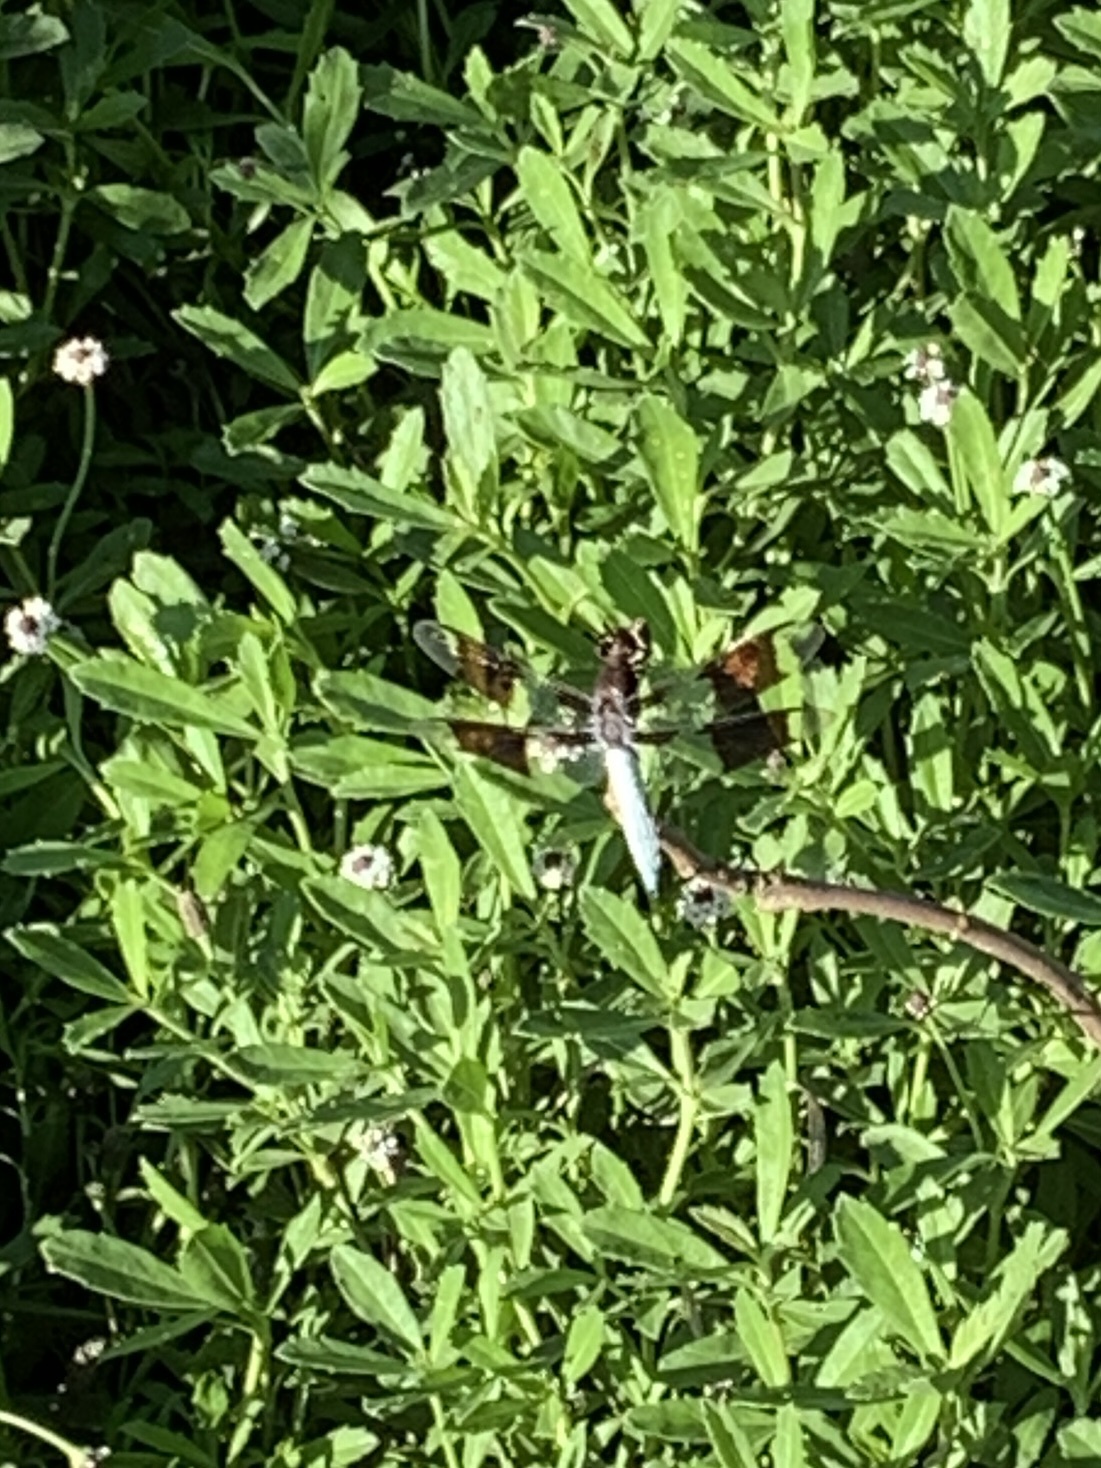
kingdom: Animalia
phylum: Arthropoda
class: Insecta
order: Odonata
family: Libellulidae
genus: Plathemis
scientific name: Plathemis lydia
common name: Common whitetail
